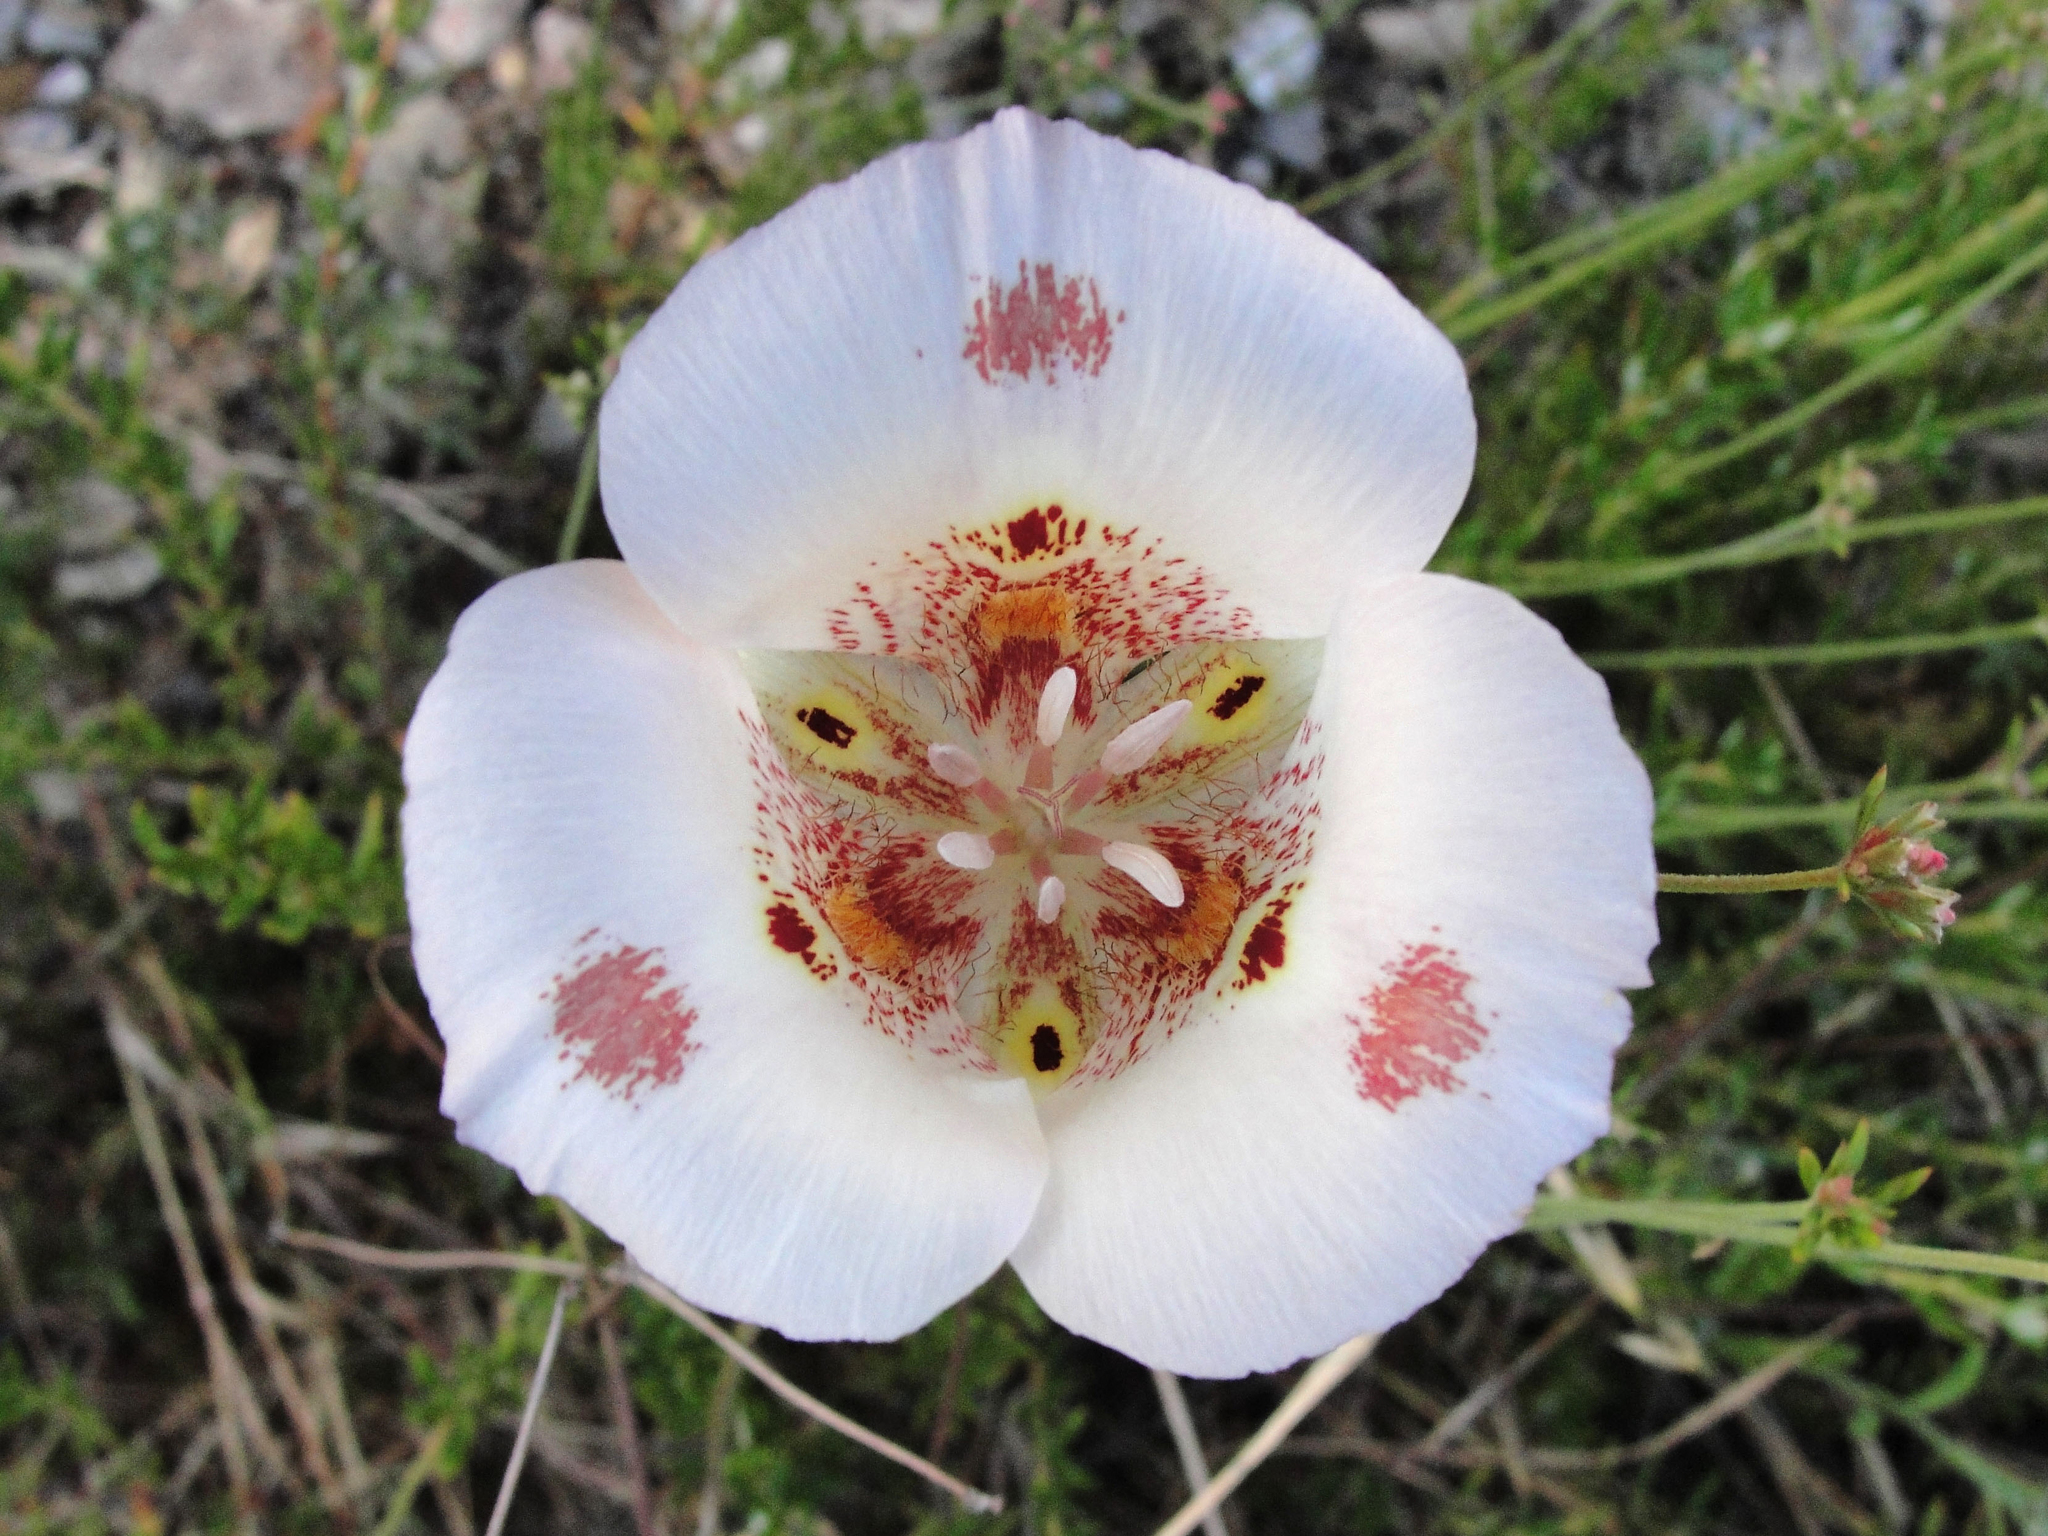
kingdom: Plantae
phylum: Tracheophyta
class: Liliopsida
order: Liliales
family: Liliaceae
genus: Calochortus
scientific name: Calochortus venustus
